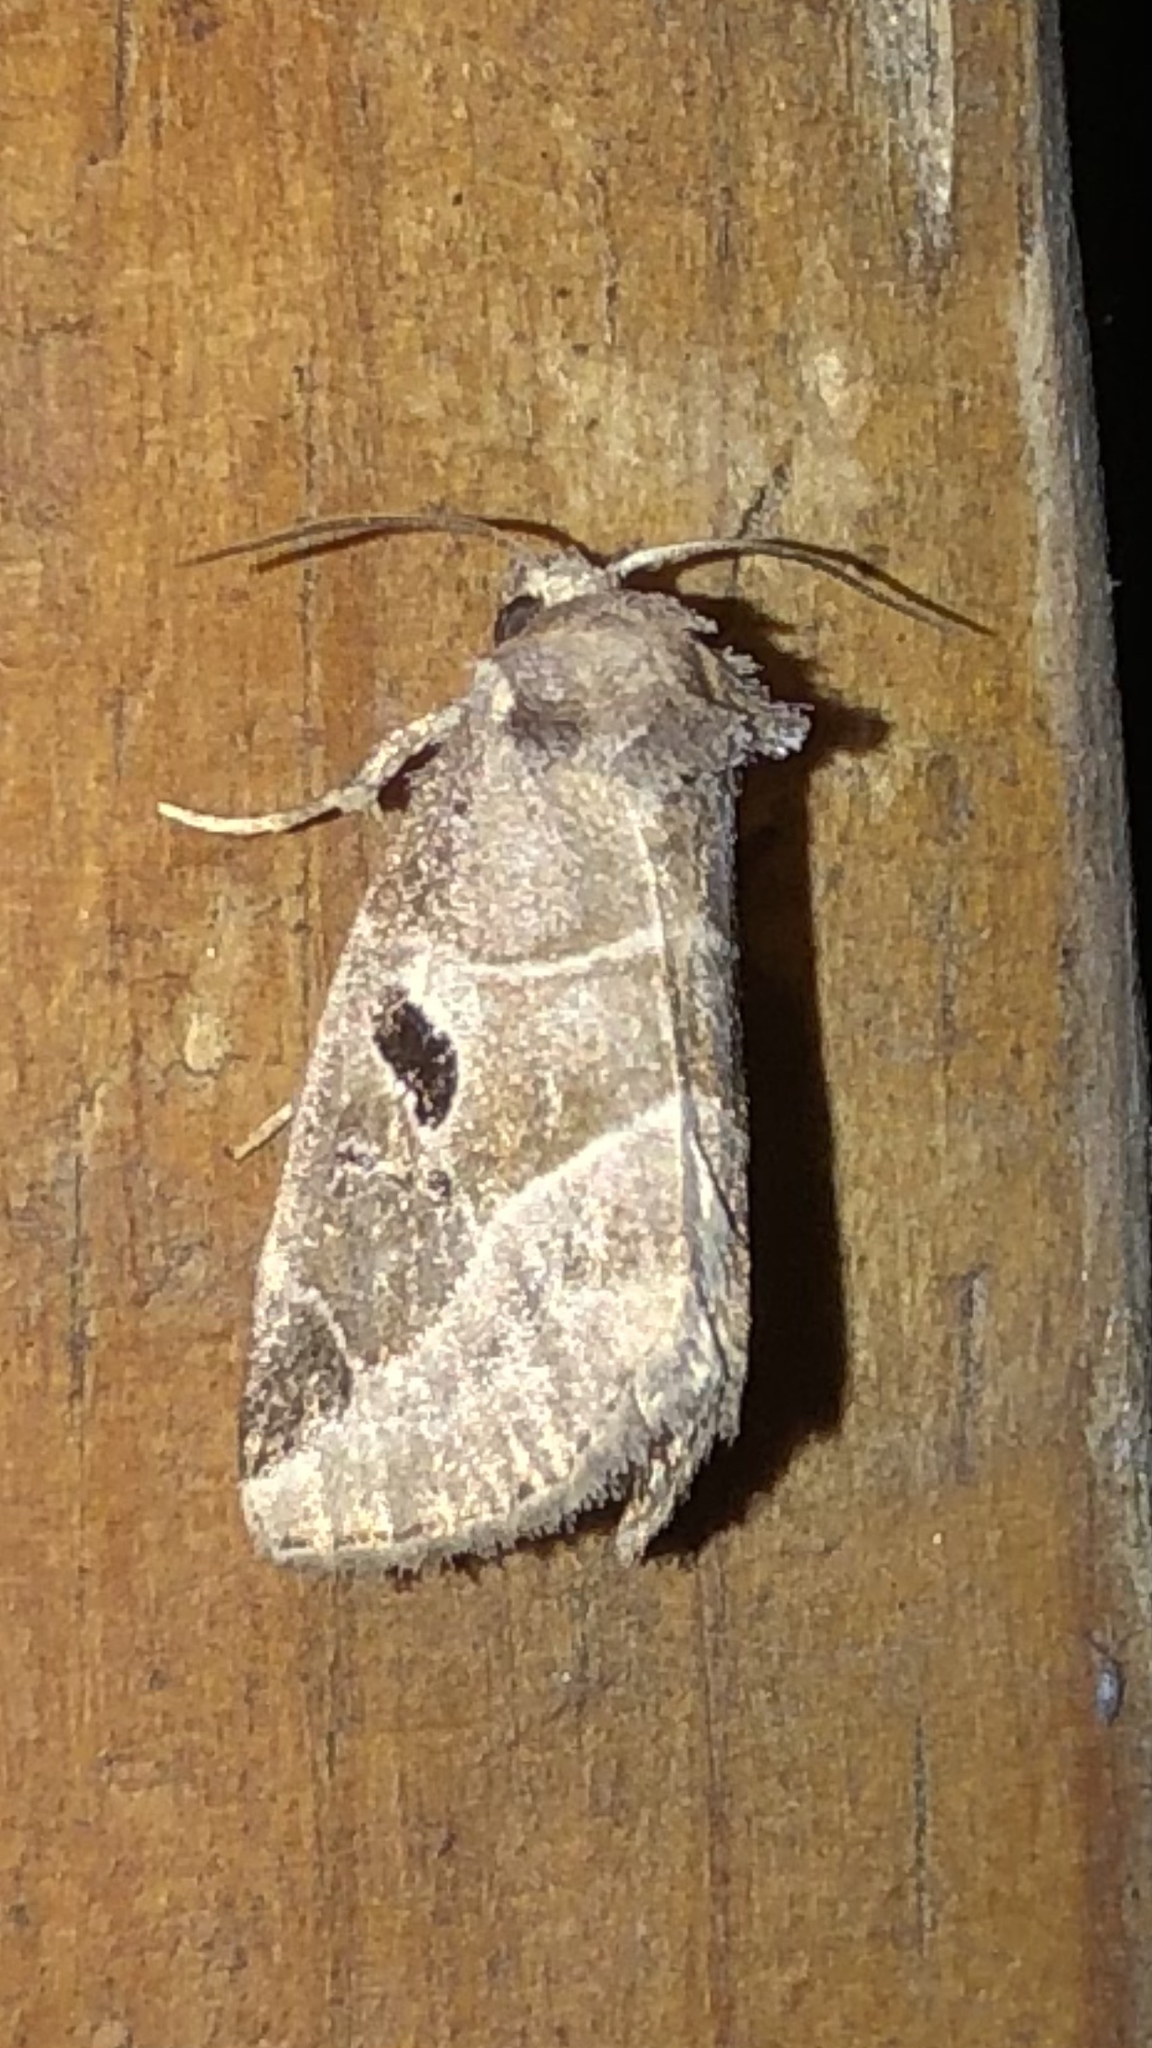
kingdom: Animalia
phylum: Arthropoda
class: Insecta
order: Lepidoptera
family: Noctuidae
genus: Plagiomimicus
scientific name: Plagiomimicus pityochromus
